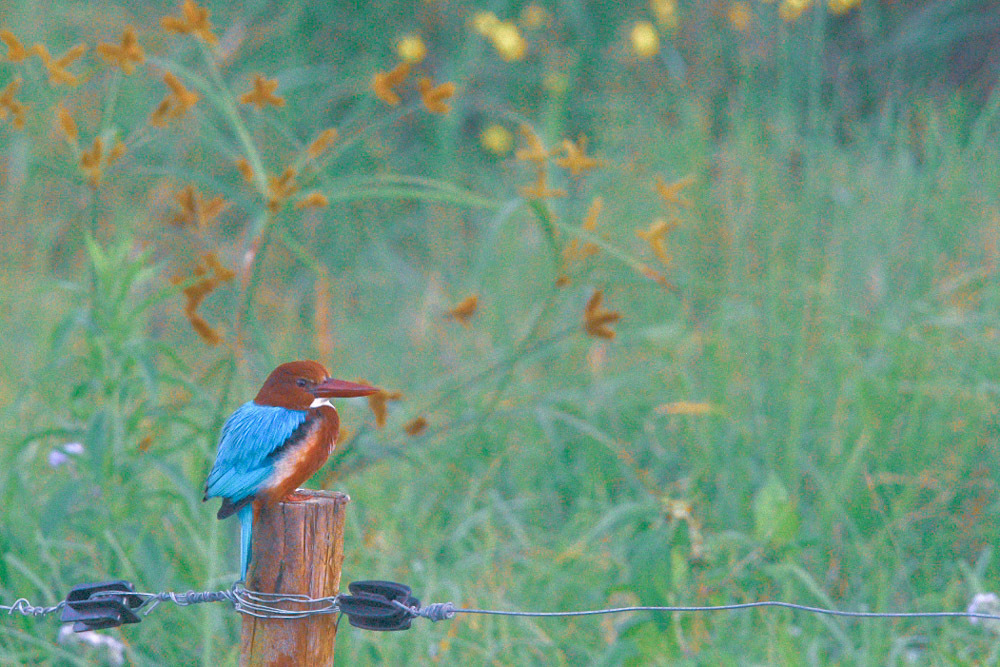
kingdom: Animalia
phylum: Chordata
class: Aves
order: Coraciiformes
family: Alcedinidae
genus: Halcyon
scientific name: Halcyon smyrnensis
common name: White-throated kingfisher
